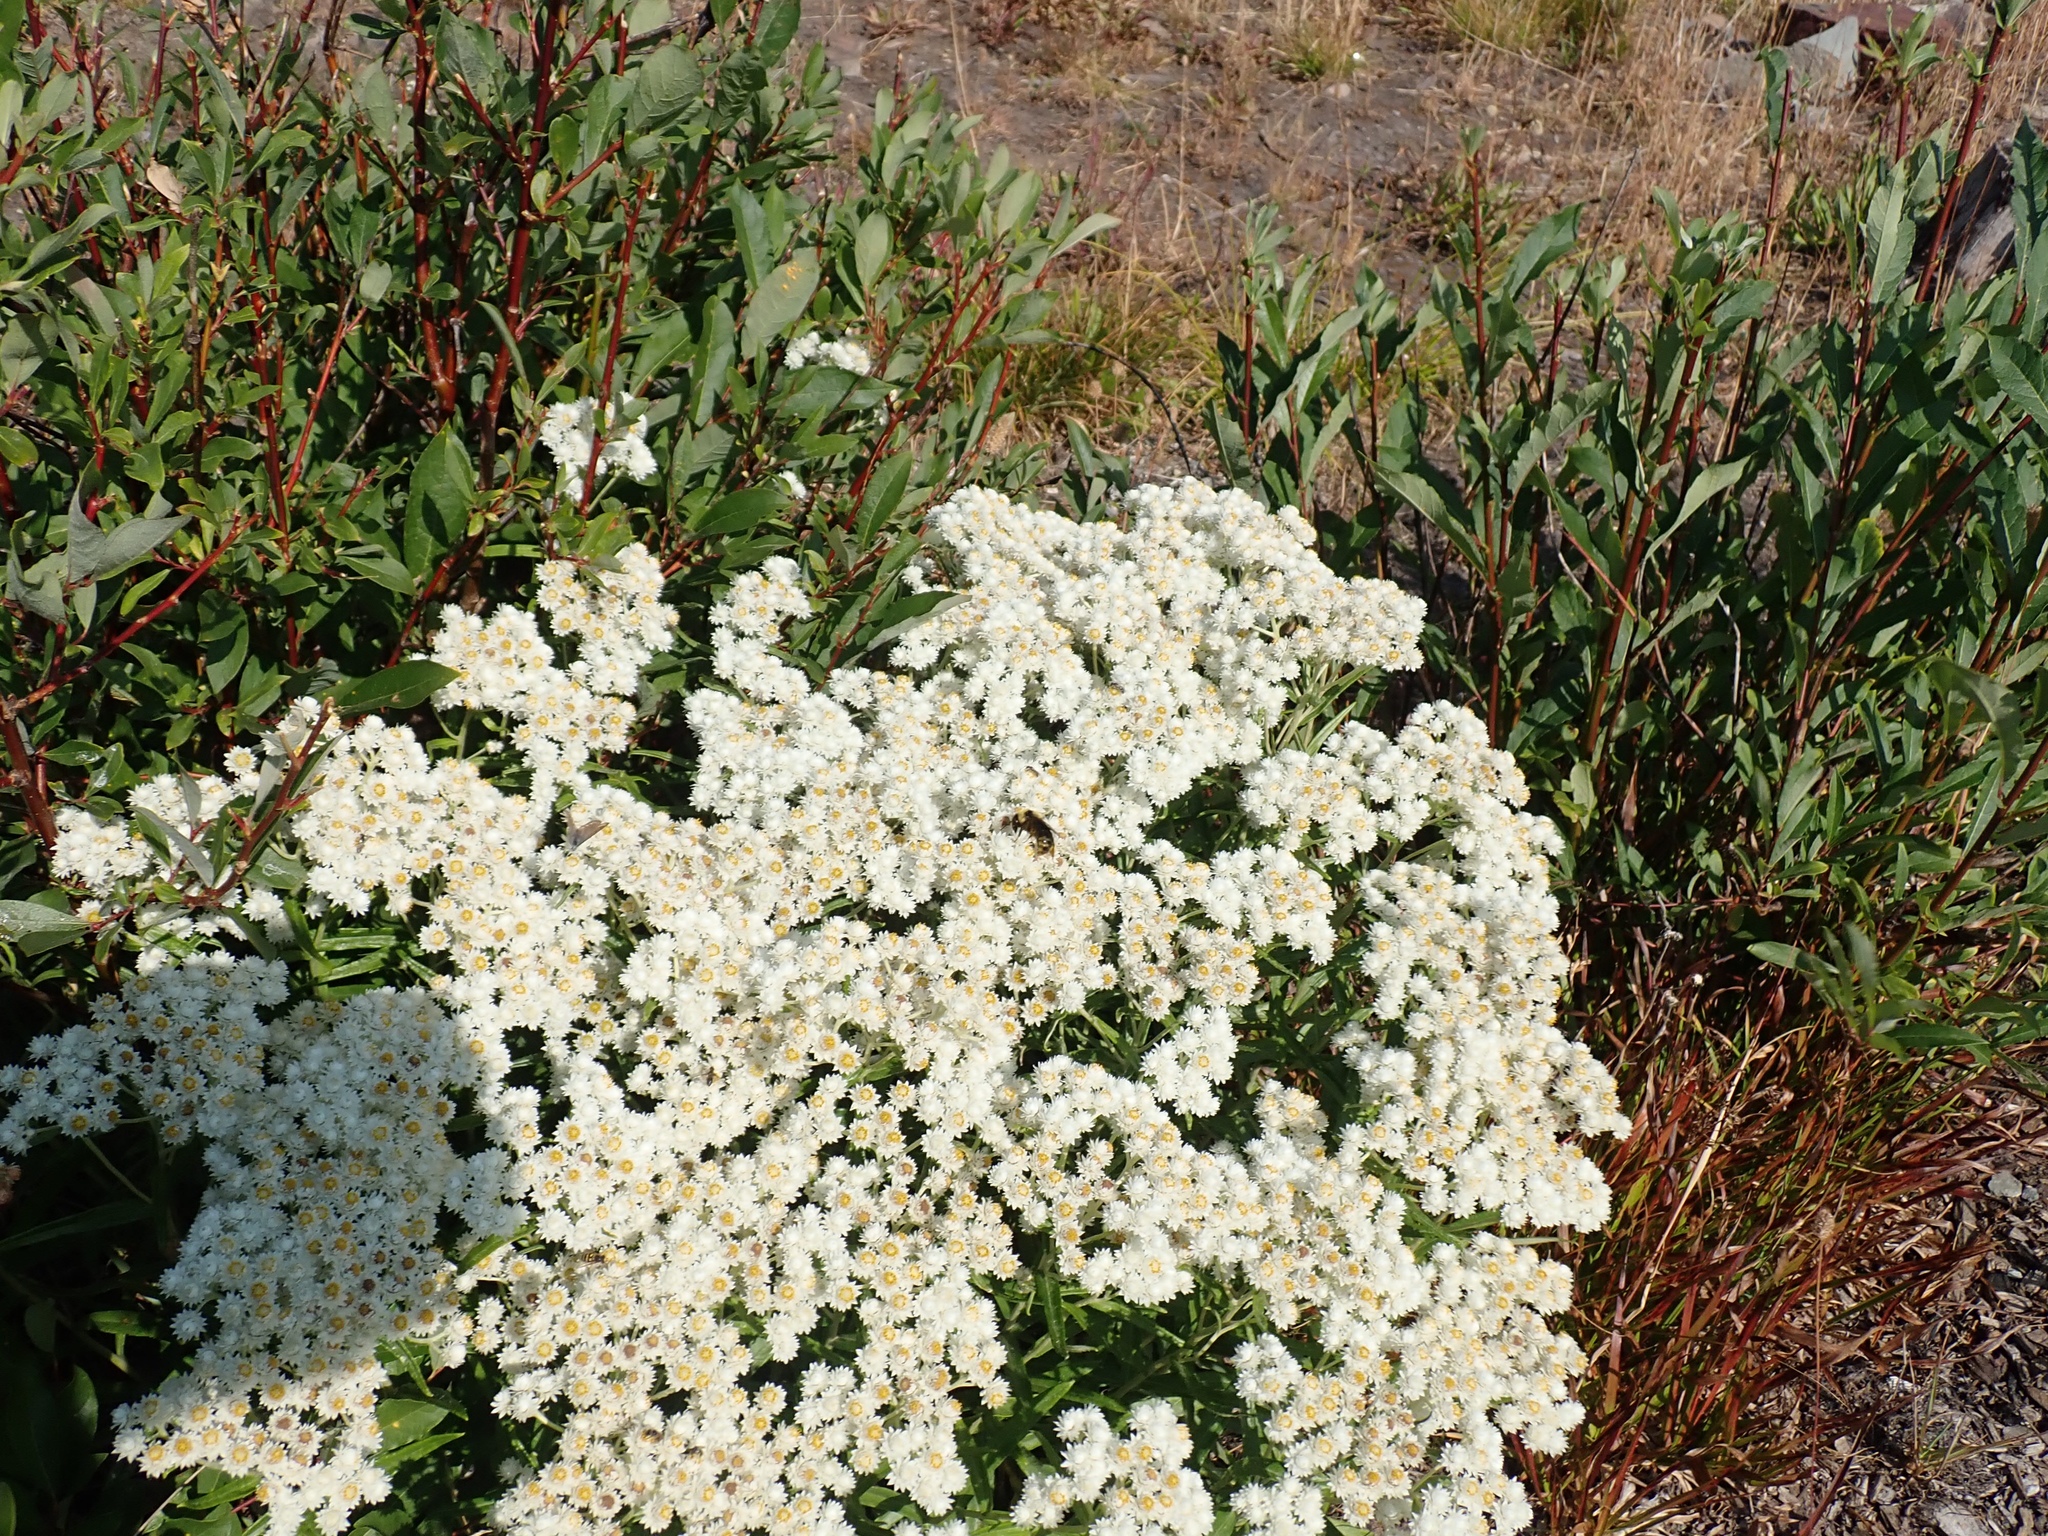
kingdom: Plantae
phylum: Tracheophyta
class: Magnoliopsida
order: Asterales
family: Asteraceae
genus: Anaphalis
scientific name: Anaphalis margaritacea
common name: Pearly everlasting
